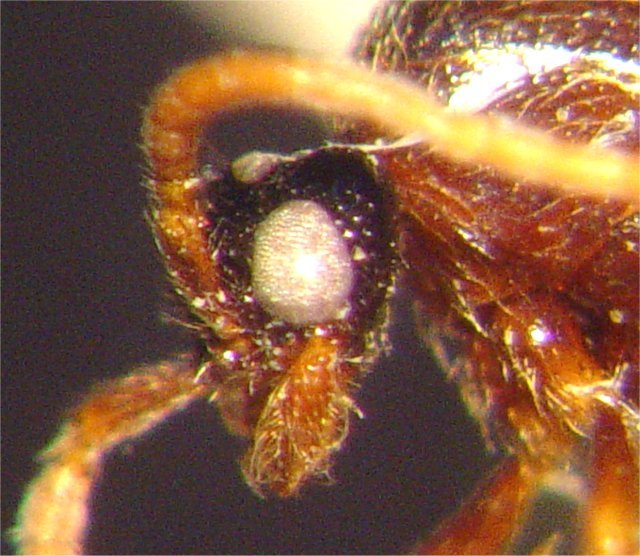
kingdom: Animalia
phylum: Arthropoda
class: Insecta
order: Hymenoptera
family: Formicidae
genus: Neivamyrmex
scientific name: Neivamyrmex baylori
